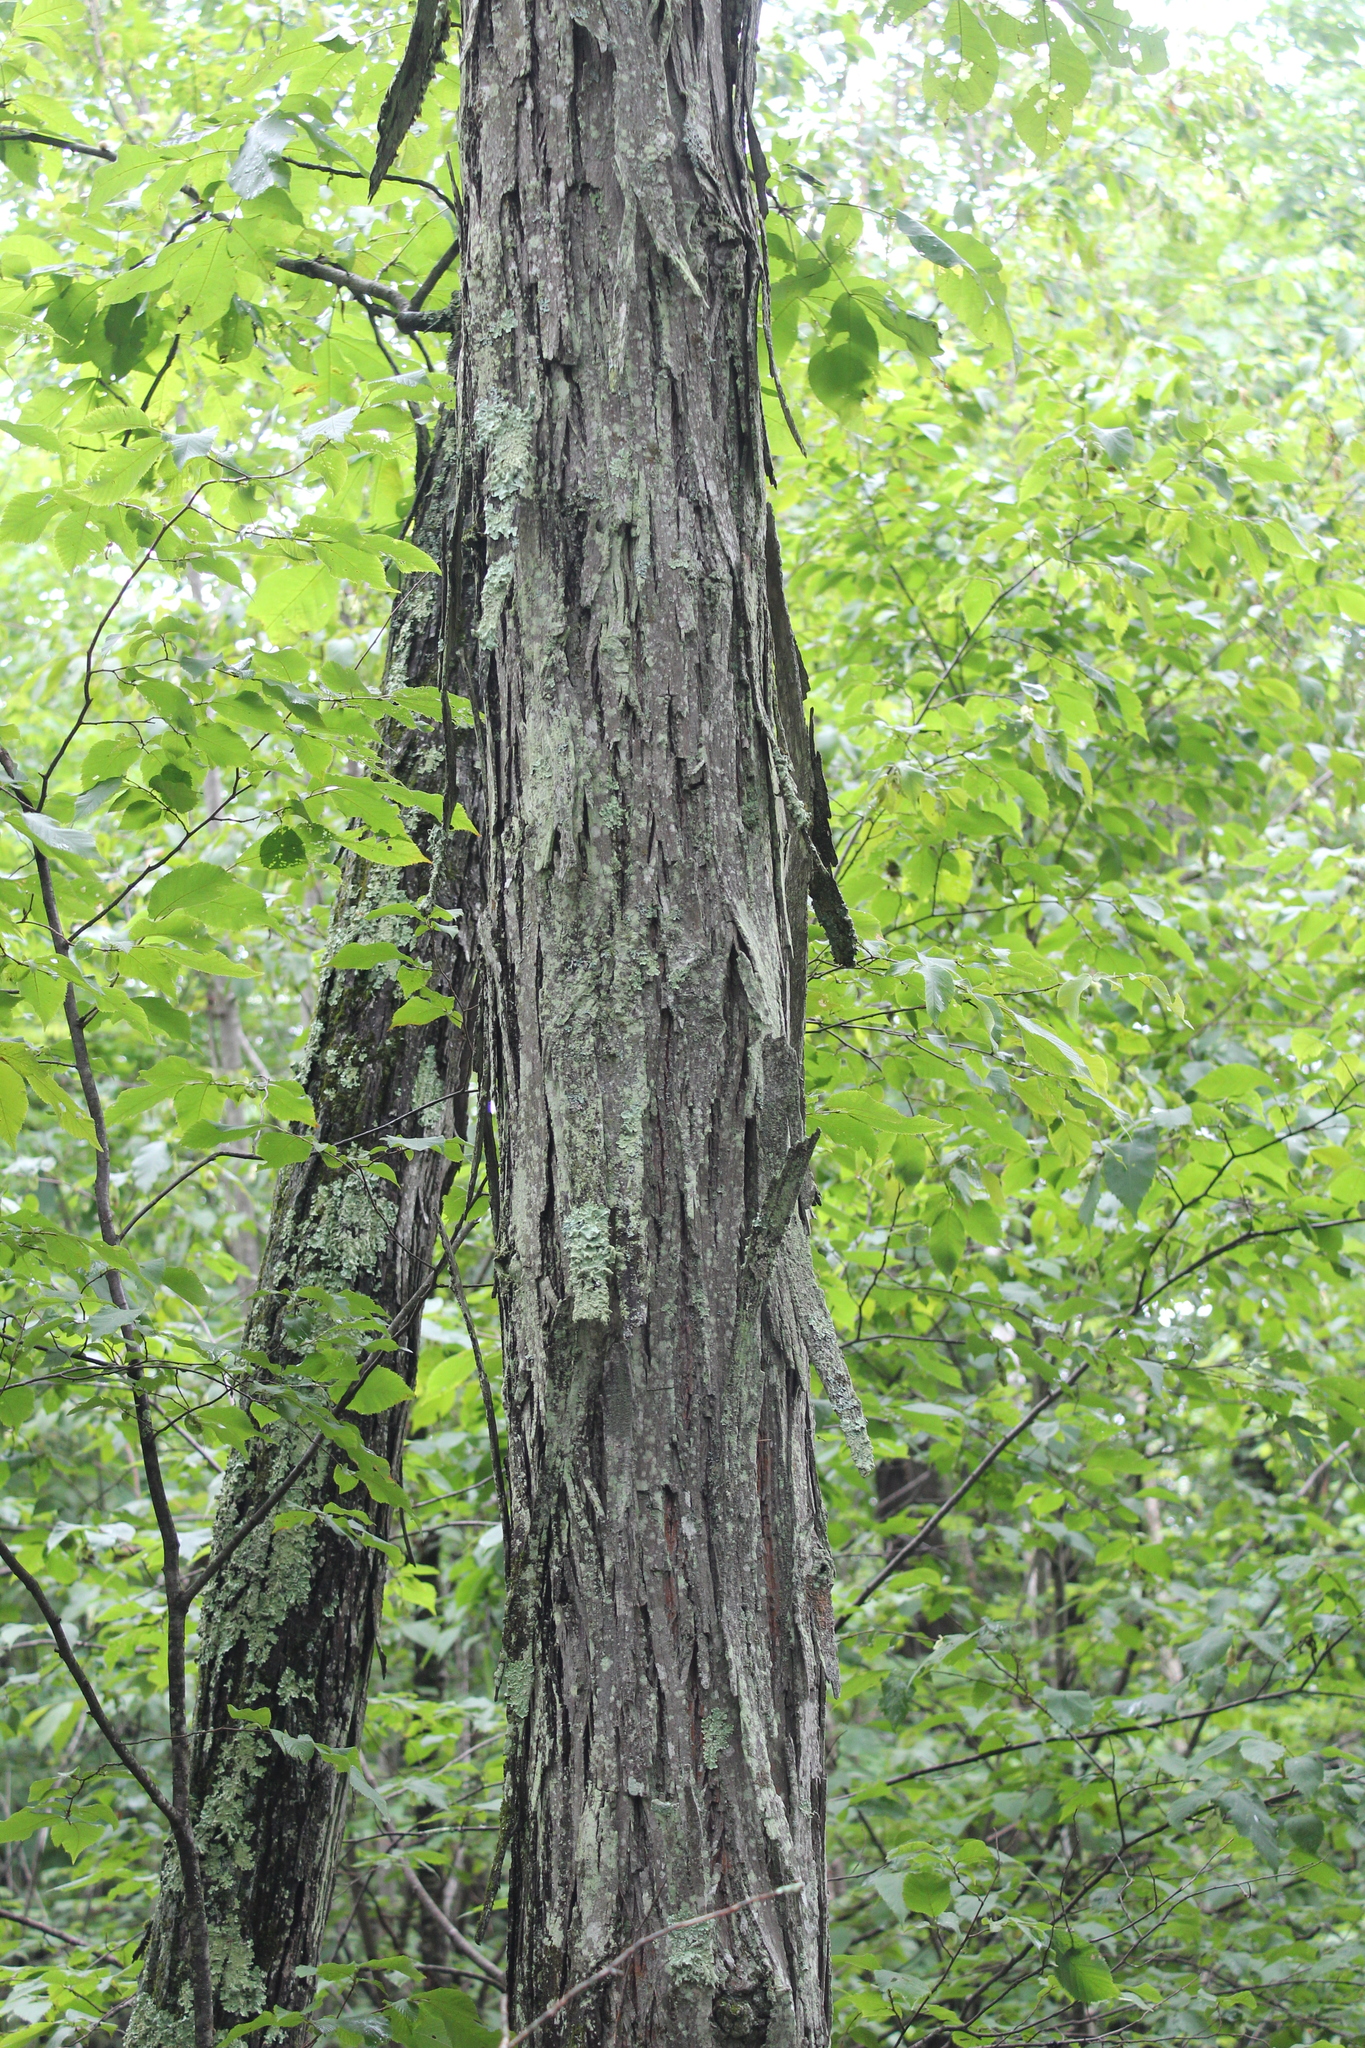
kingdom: Plantae
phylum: Tracheophyta
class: Magnoliopsida
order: Fagales
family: Juglandaceae
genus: Carya
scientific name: Carya ovata
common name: Shagbark hickory
